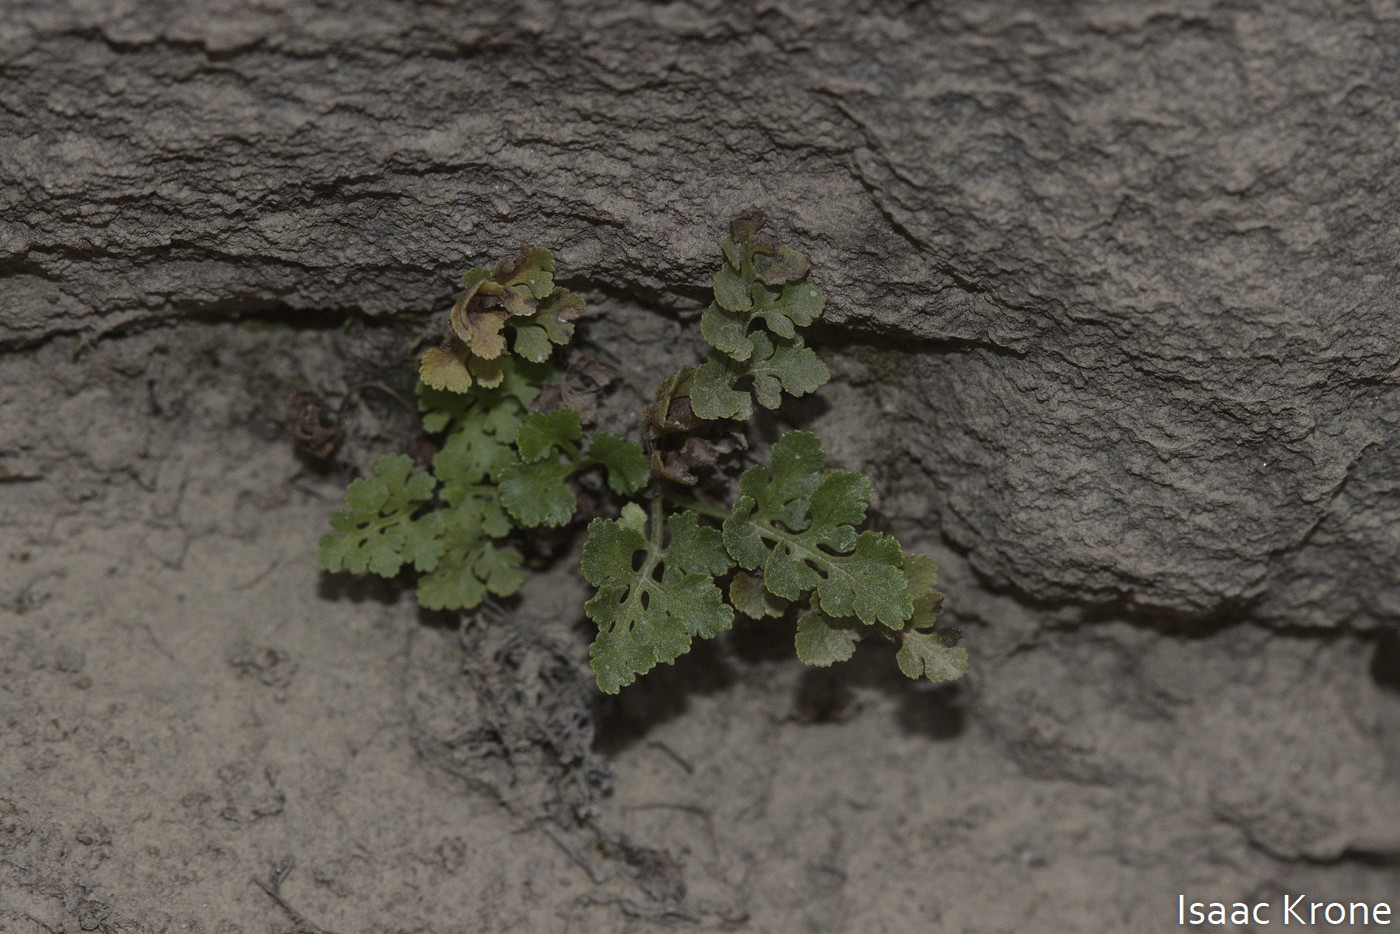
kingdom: Plantae
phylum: Tracheophyta
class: Polypodiopsida
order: Polypodiales
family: Pteridaceae
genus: Cryptogramma
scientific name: Cryptogramma acrostichoides
